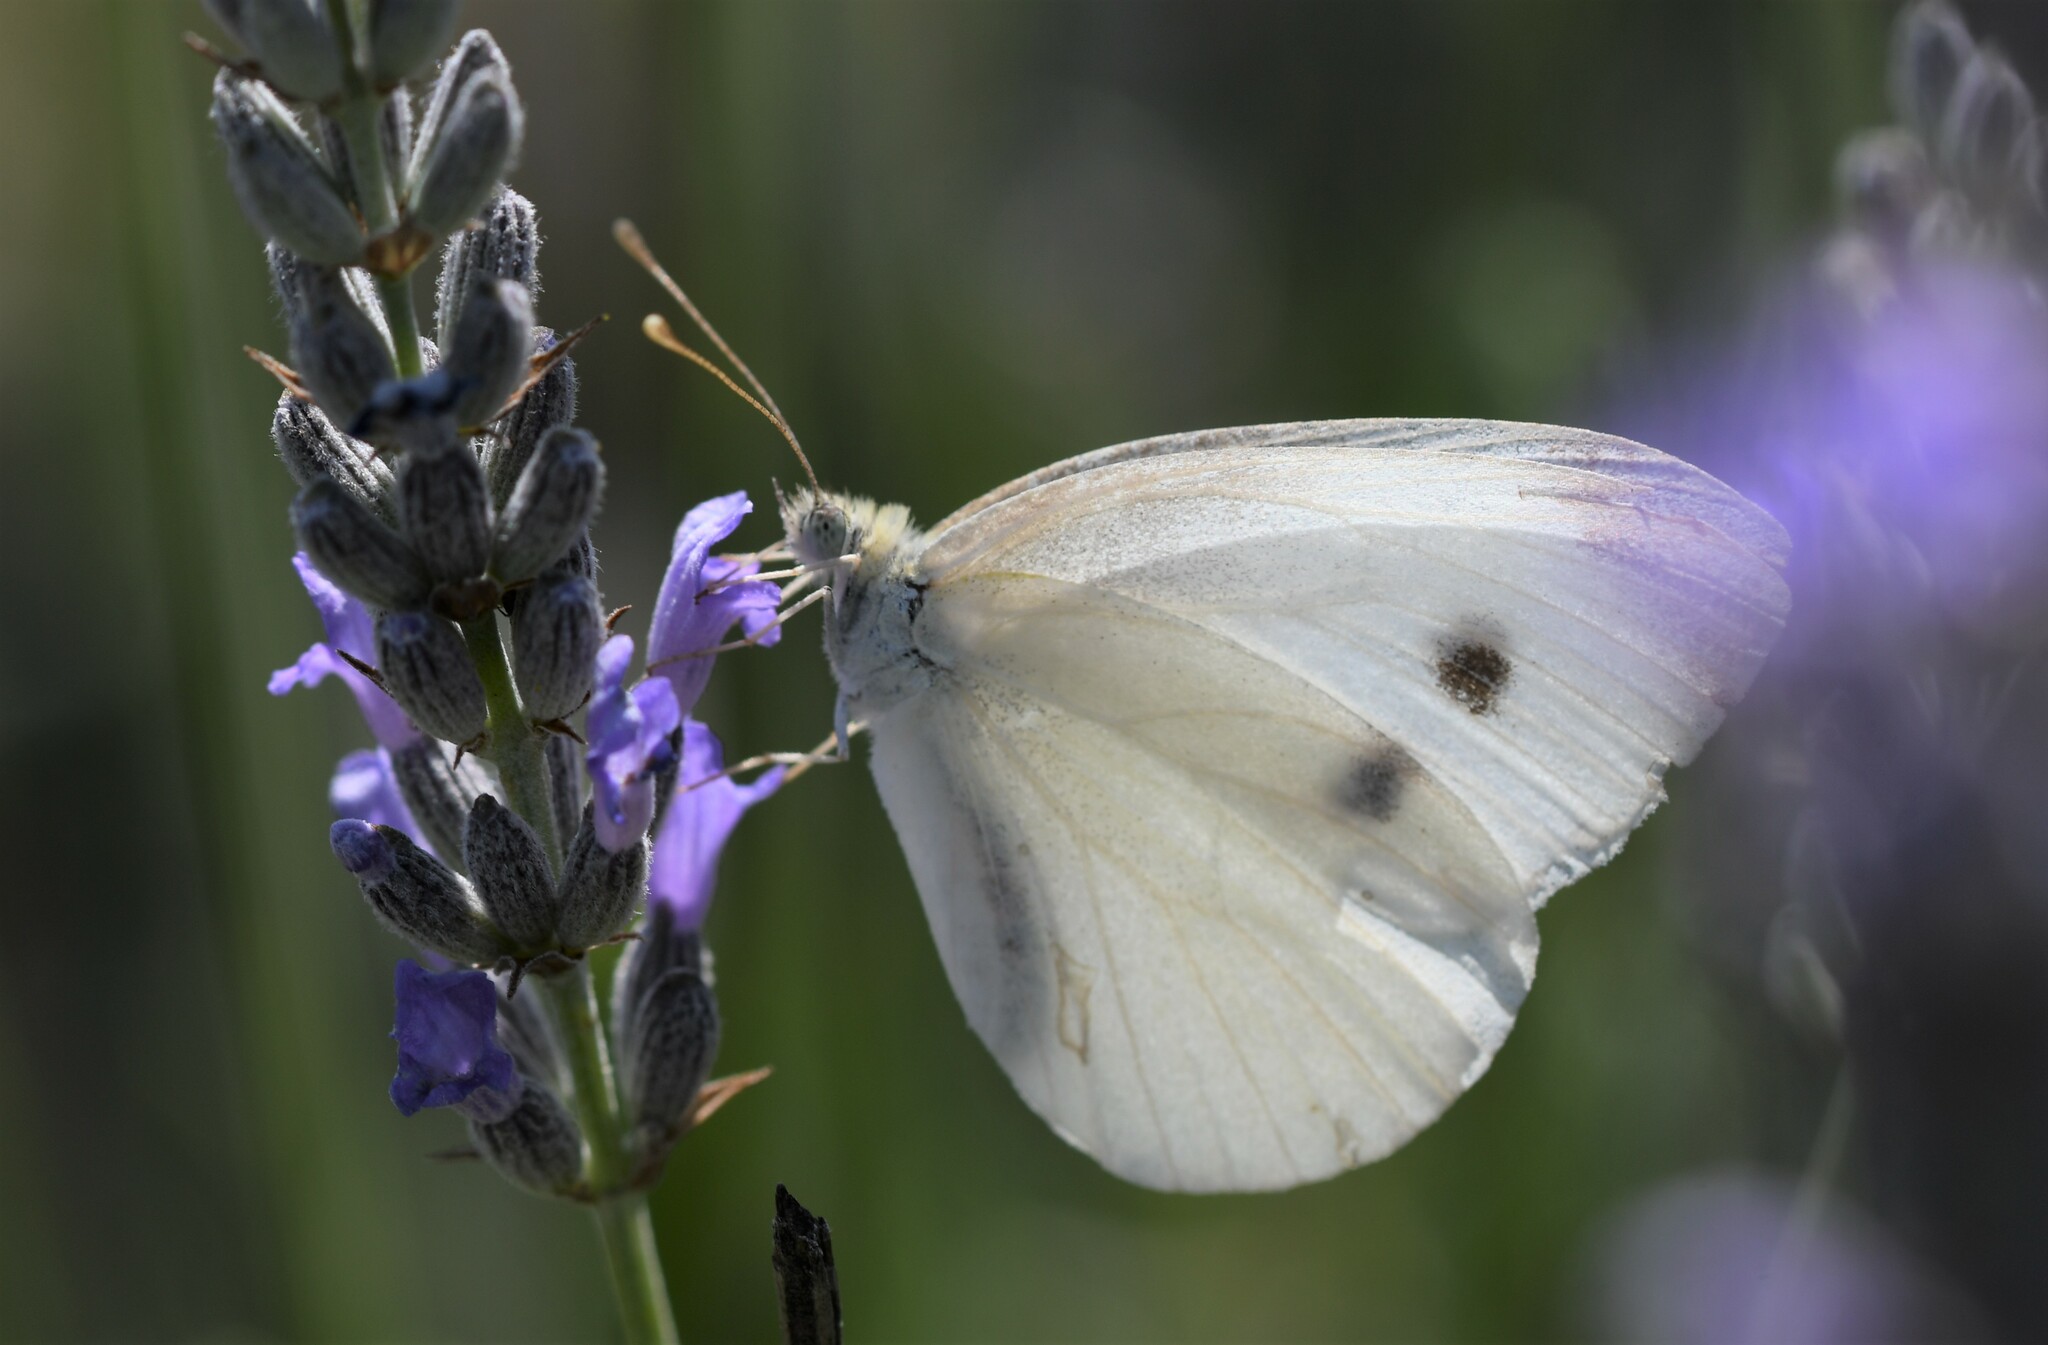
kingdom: Animalia
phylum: Arthropoda
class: Insecta
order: Lepidoptera
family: Pieridae
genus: Pieris
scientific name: Pieris rapae
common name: Small white
